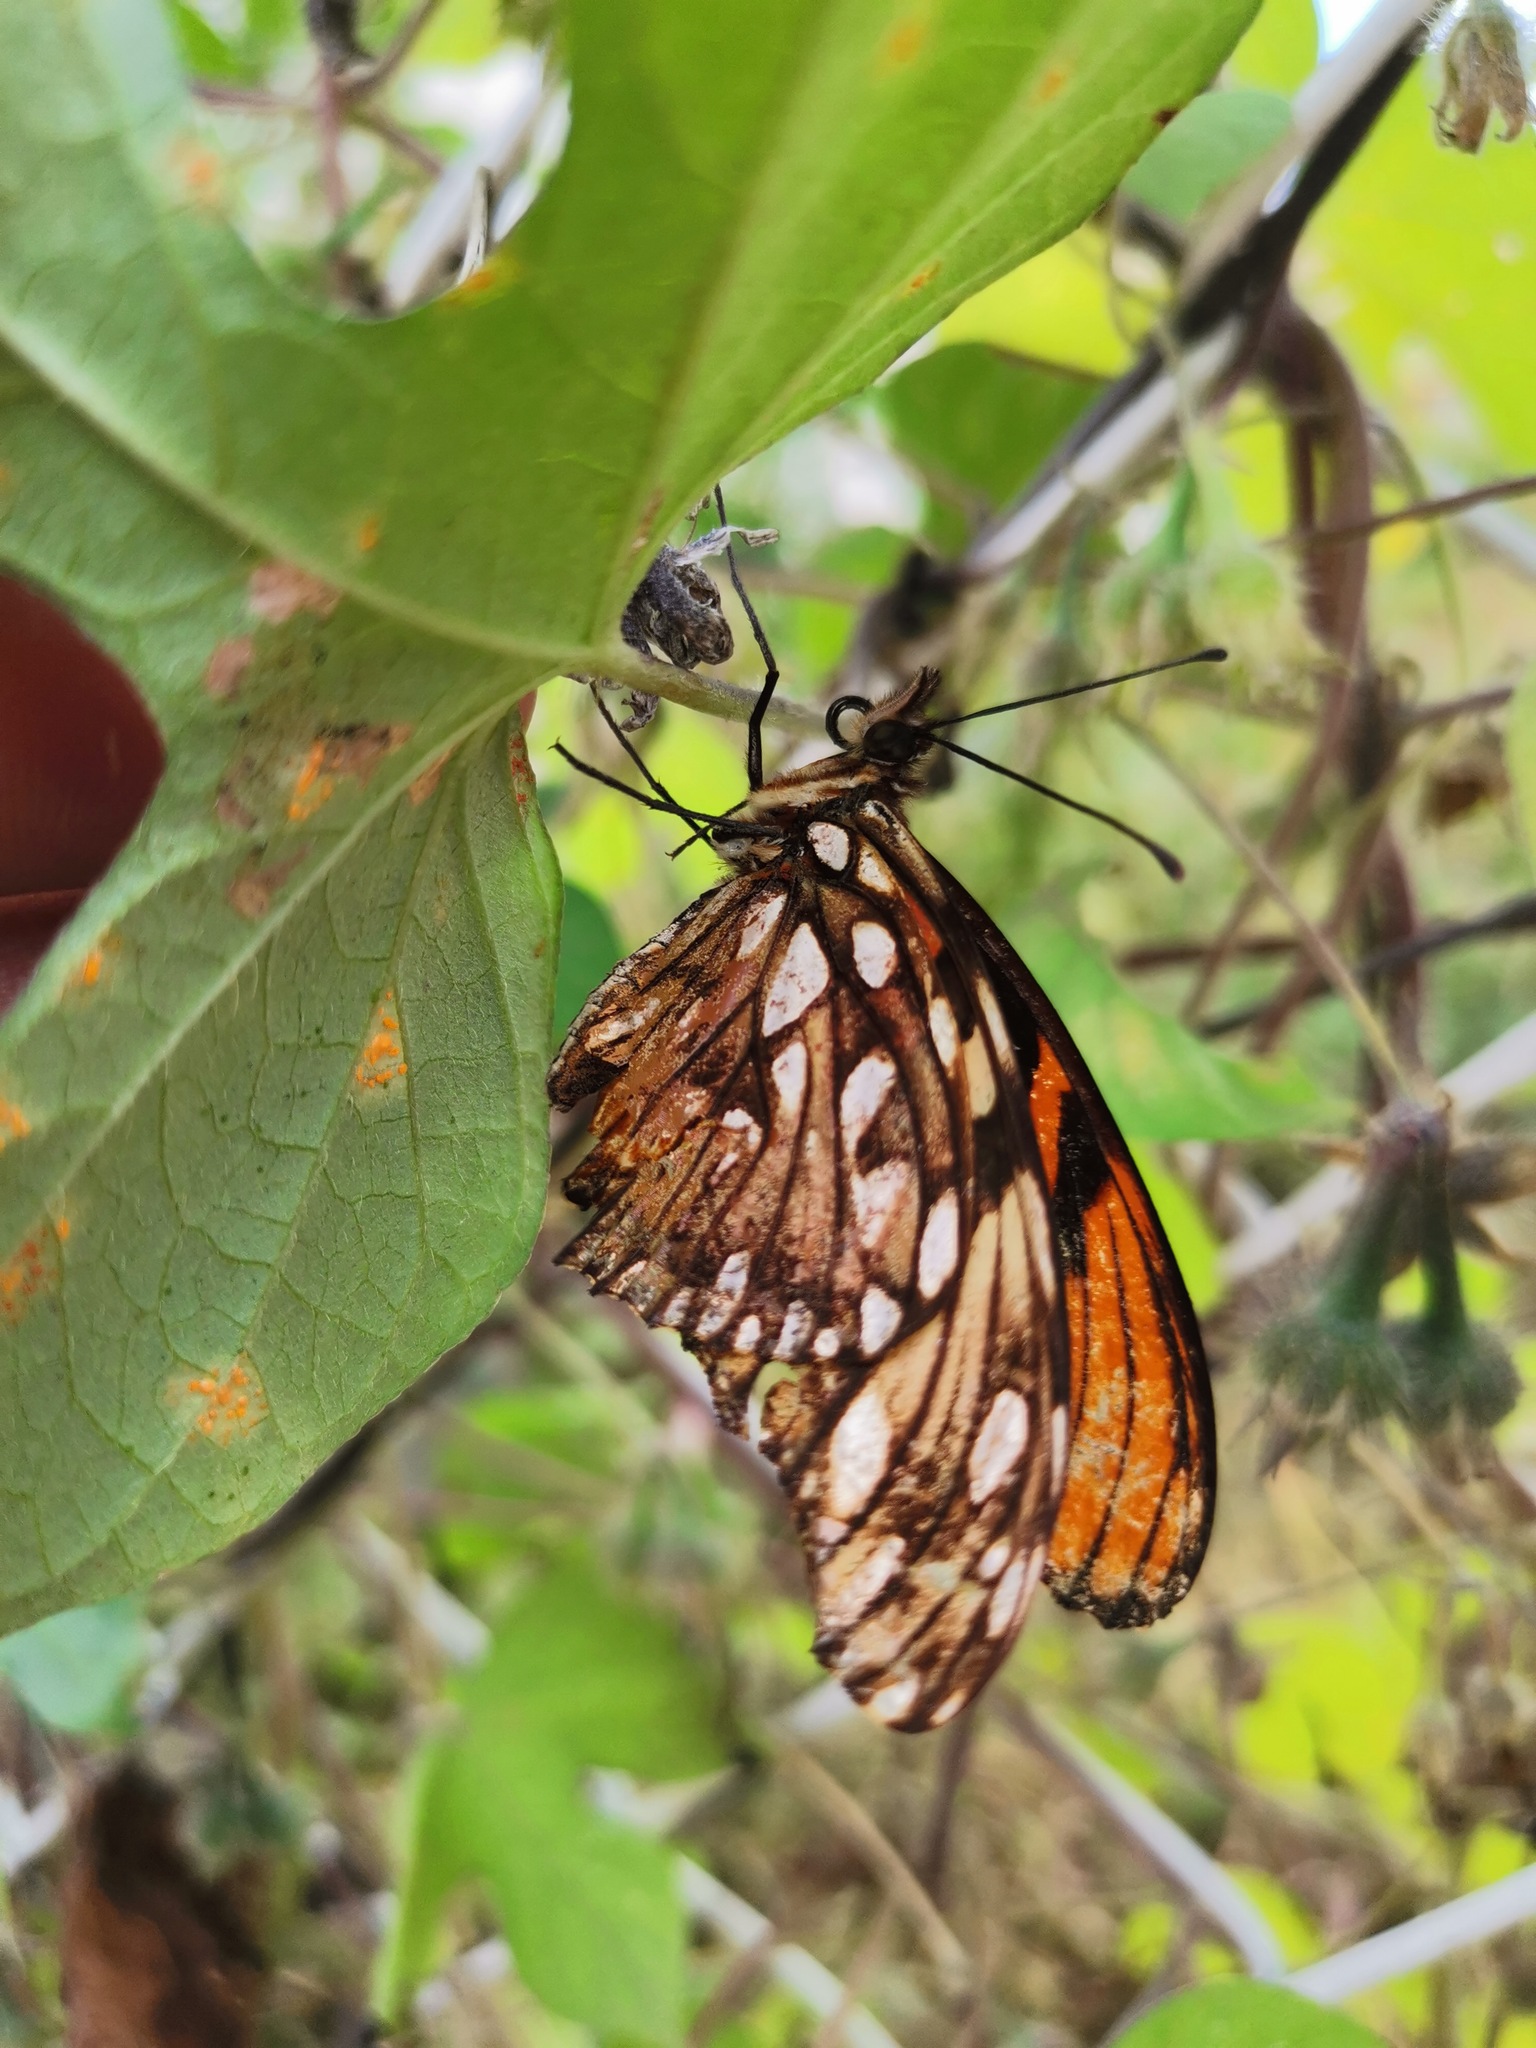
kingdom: Animalia
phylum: Arthropoda
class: Insecta
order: Lepidoptera
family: Nymphalidae
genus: Dione
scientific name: Dione juno
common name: Juno silverspot
